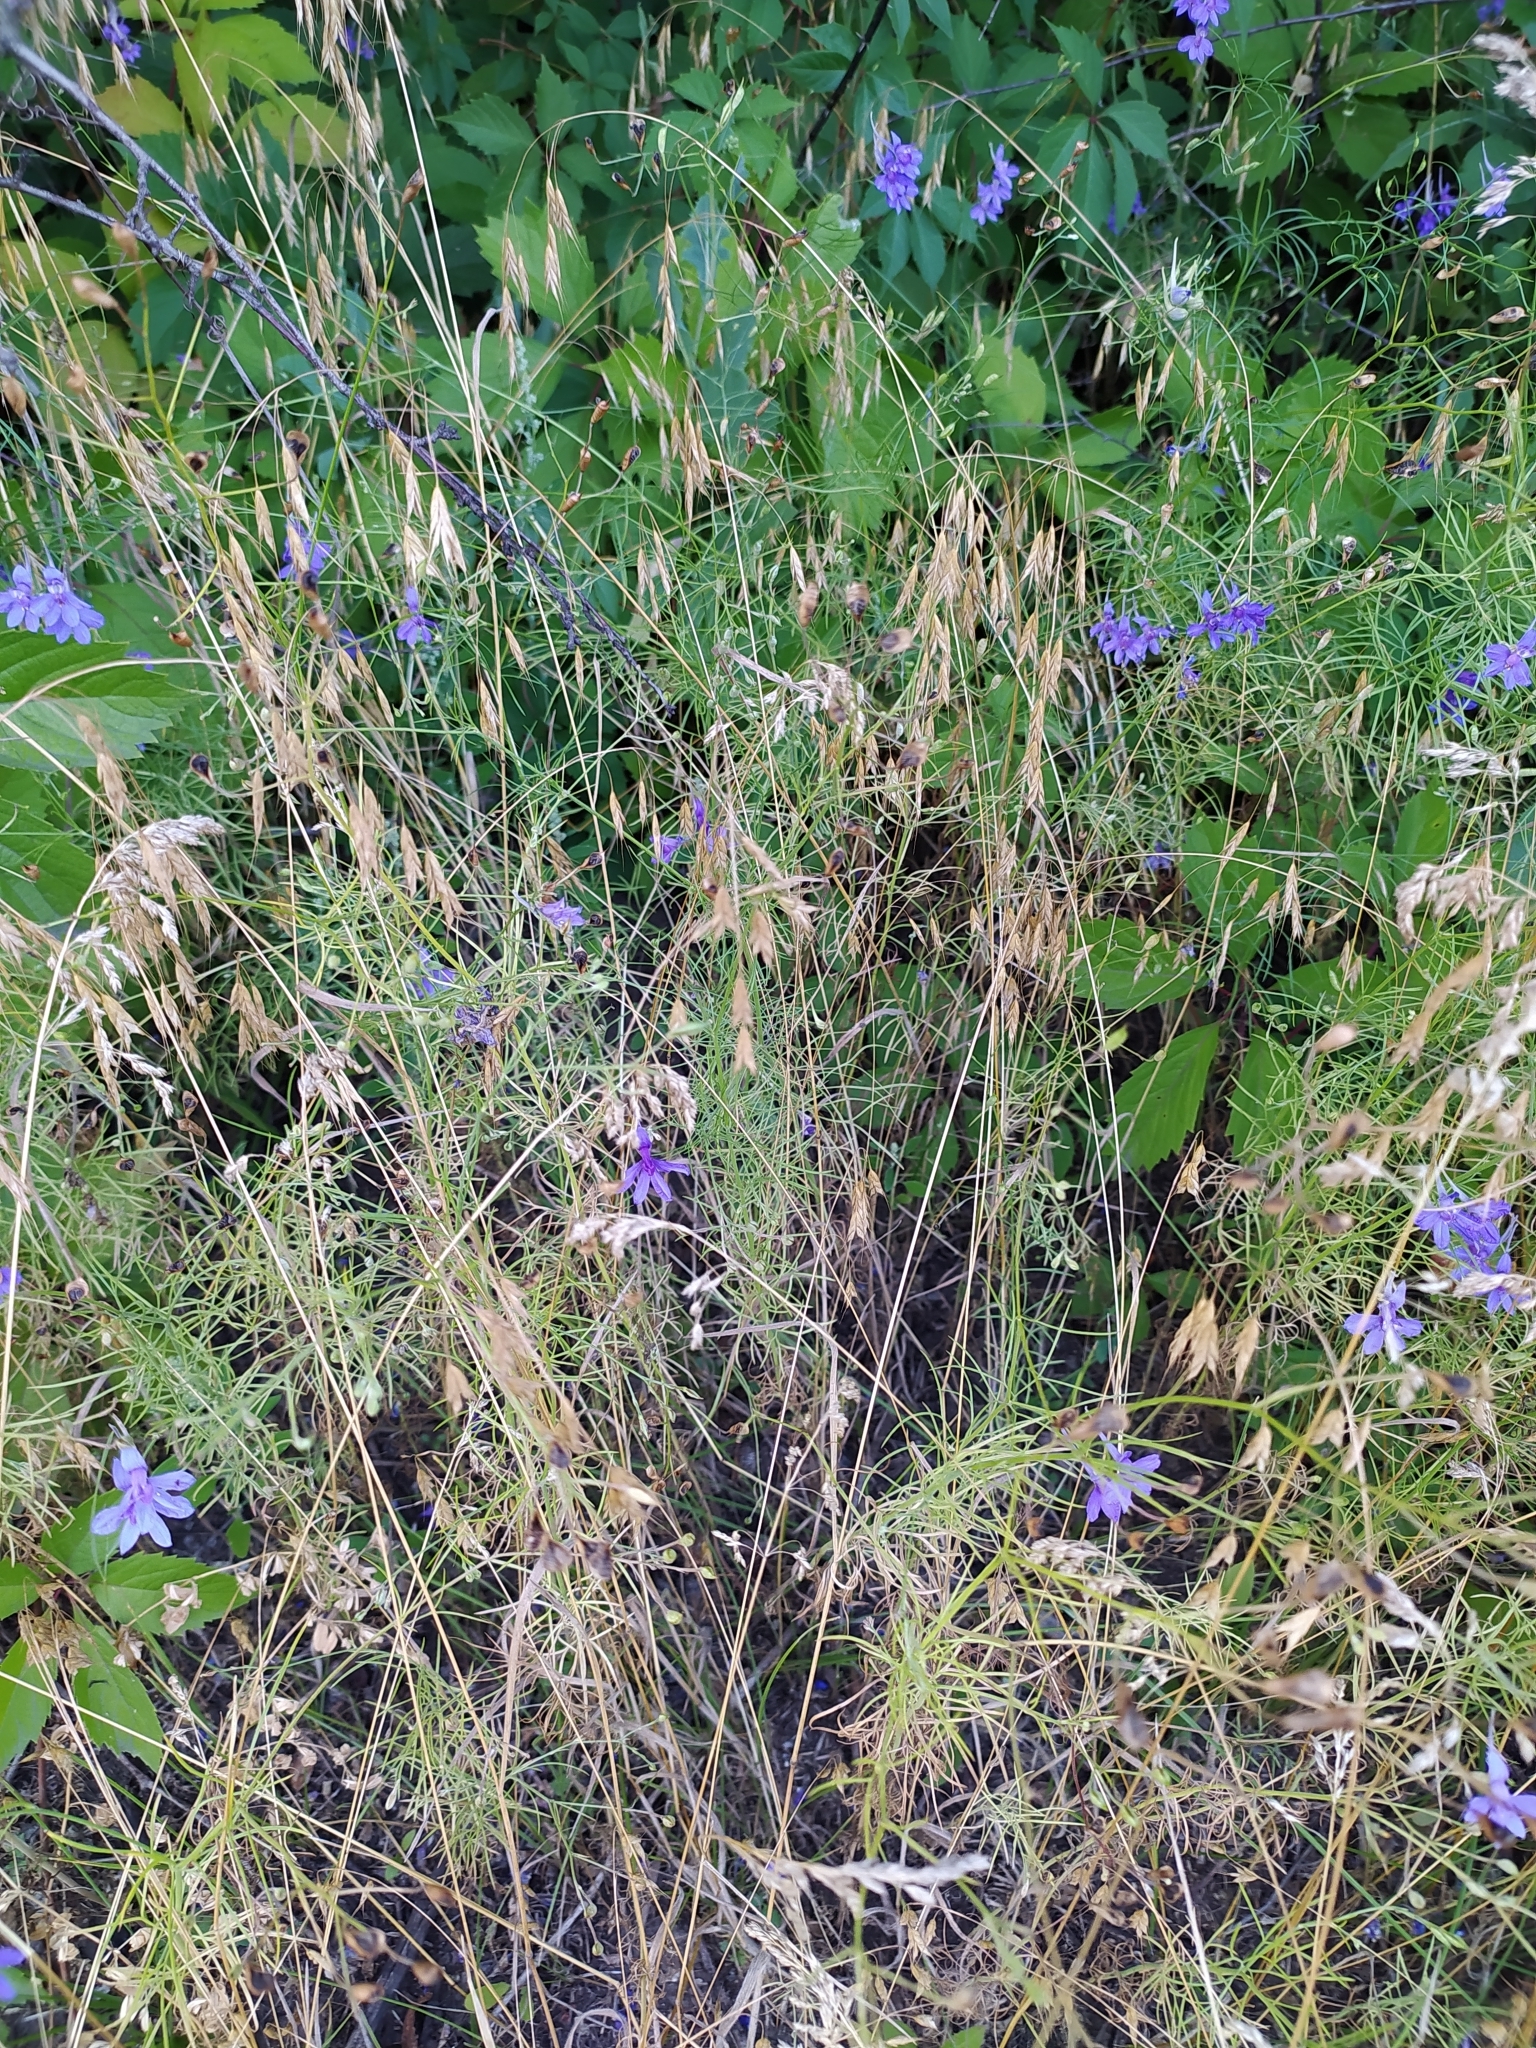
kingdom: Plantae
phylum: Tracheophyta
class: Magnoliopsida
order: Ranunculales
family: Ranunculaceae
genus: Delphinium
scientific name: Delphinium consolida
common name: Branching larkspur
